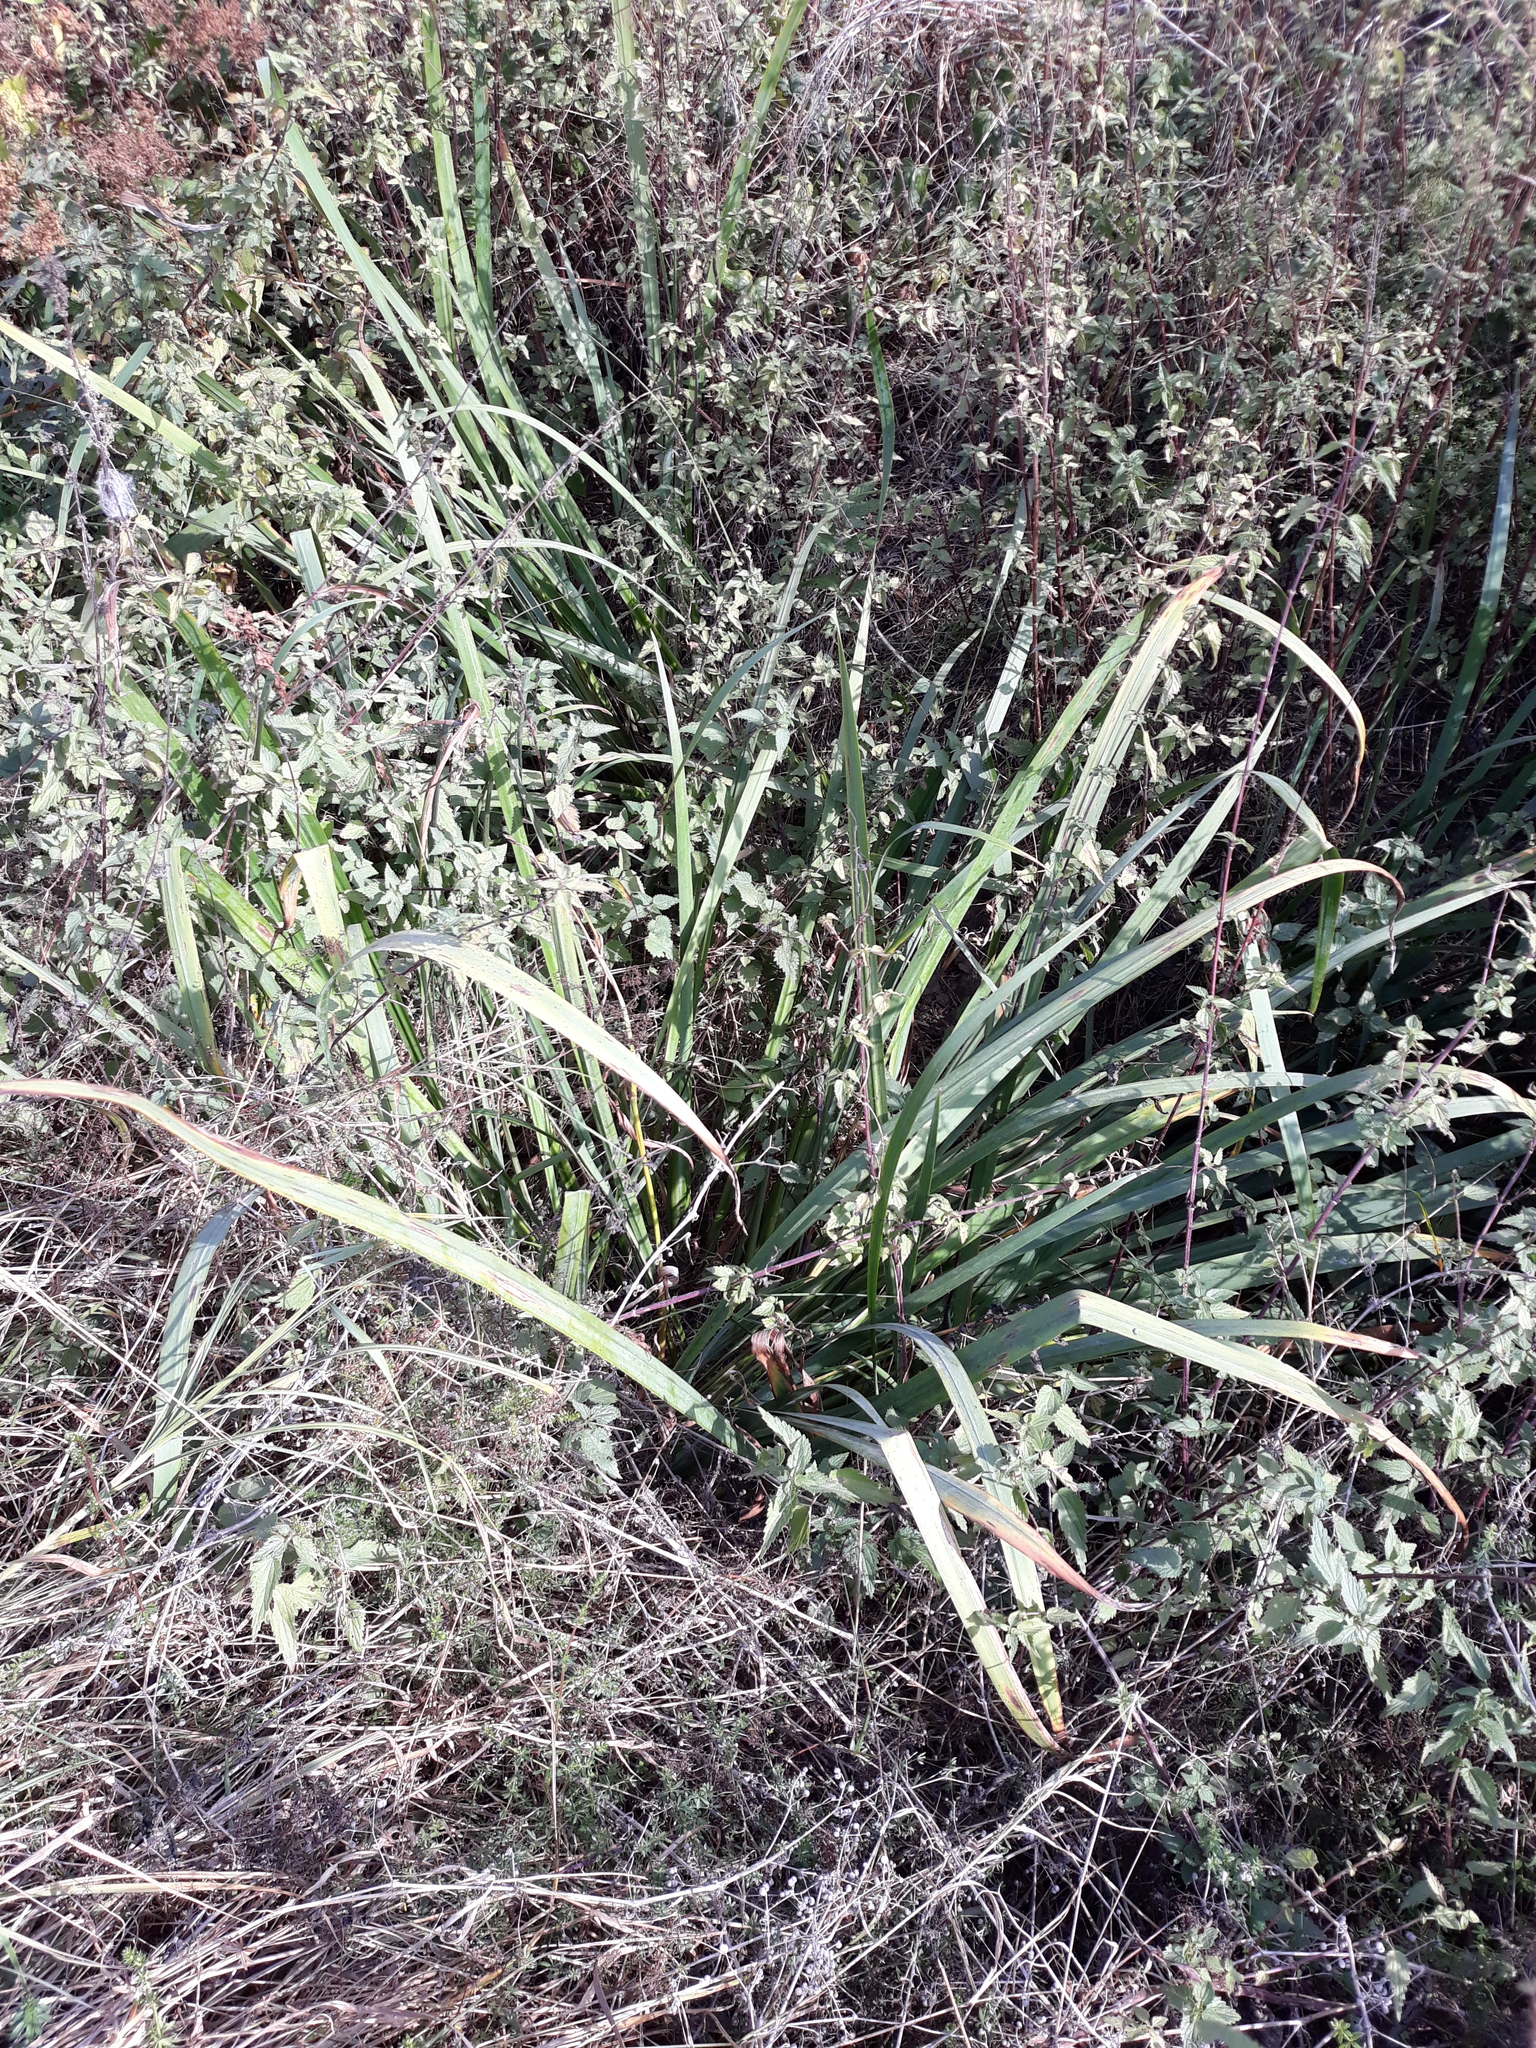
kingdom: Plantae
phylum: Tracheophyta
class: Liliopsida
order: Asparagales
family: Iridaceae
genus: Iris
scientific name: Iris pseudacorus
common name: Yellow flag
